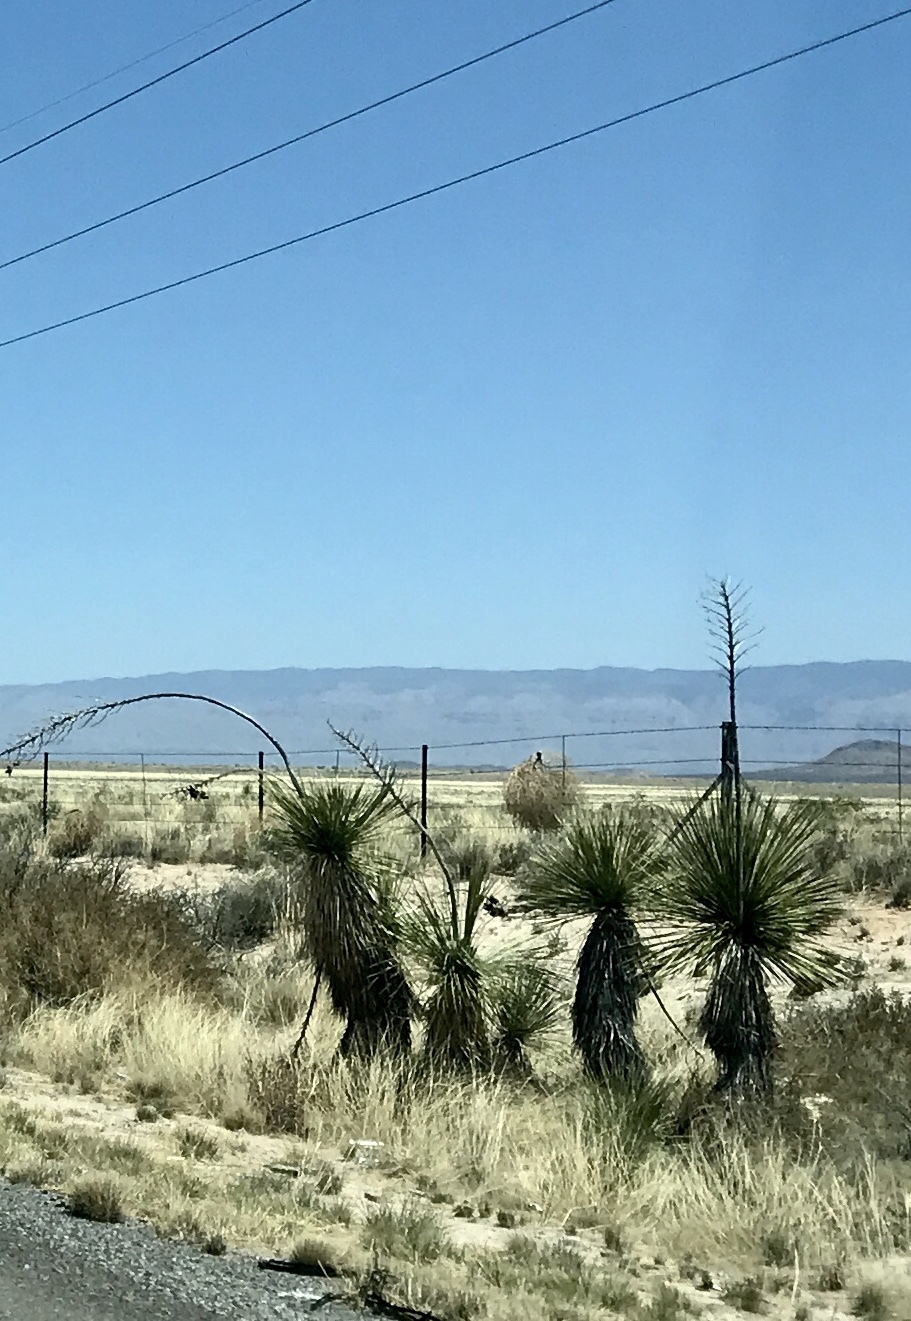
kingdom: Plantae
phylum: Tracheophyta
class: Liliopsida
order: Asparagales
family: Asparagaceae
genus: Yucca
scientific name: Yucca elata
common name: Palmella
